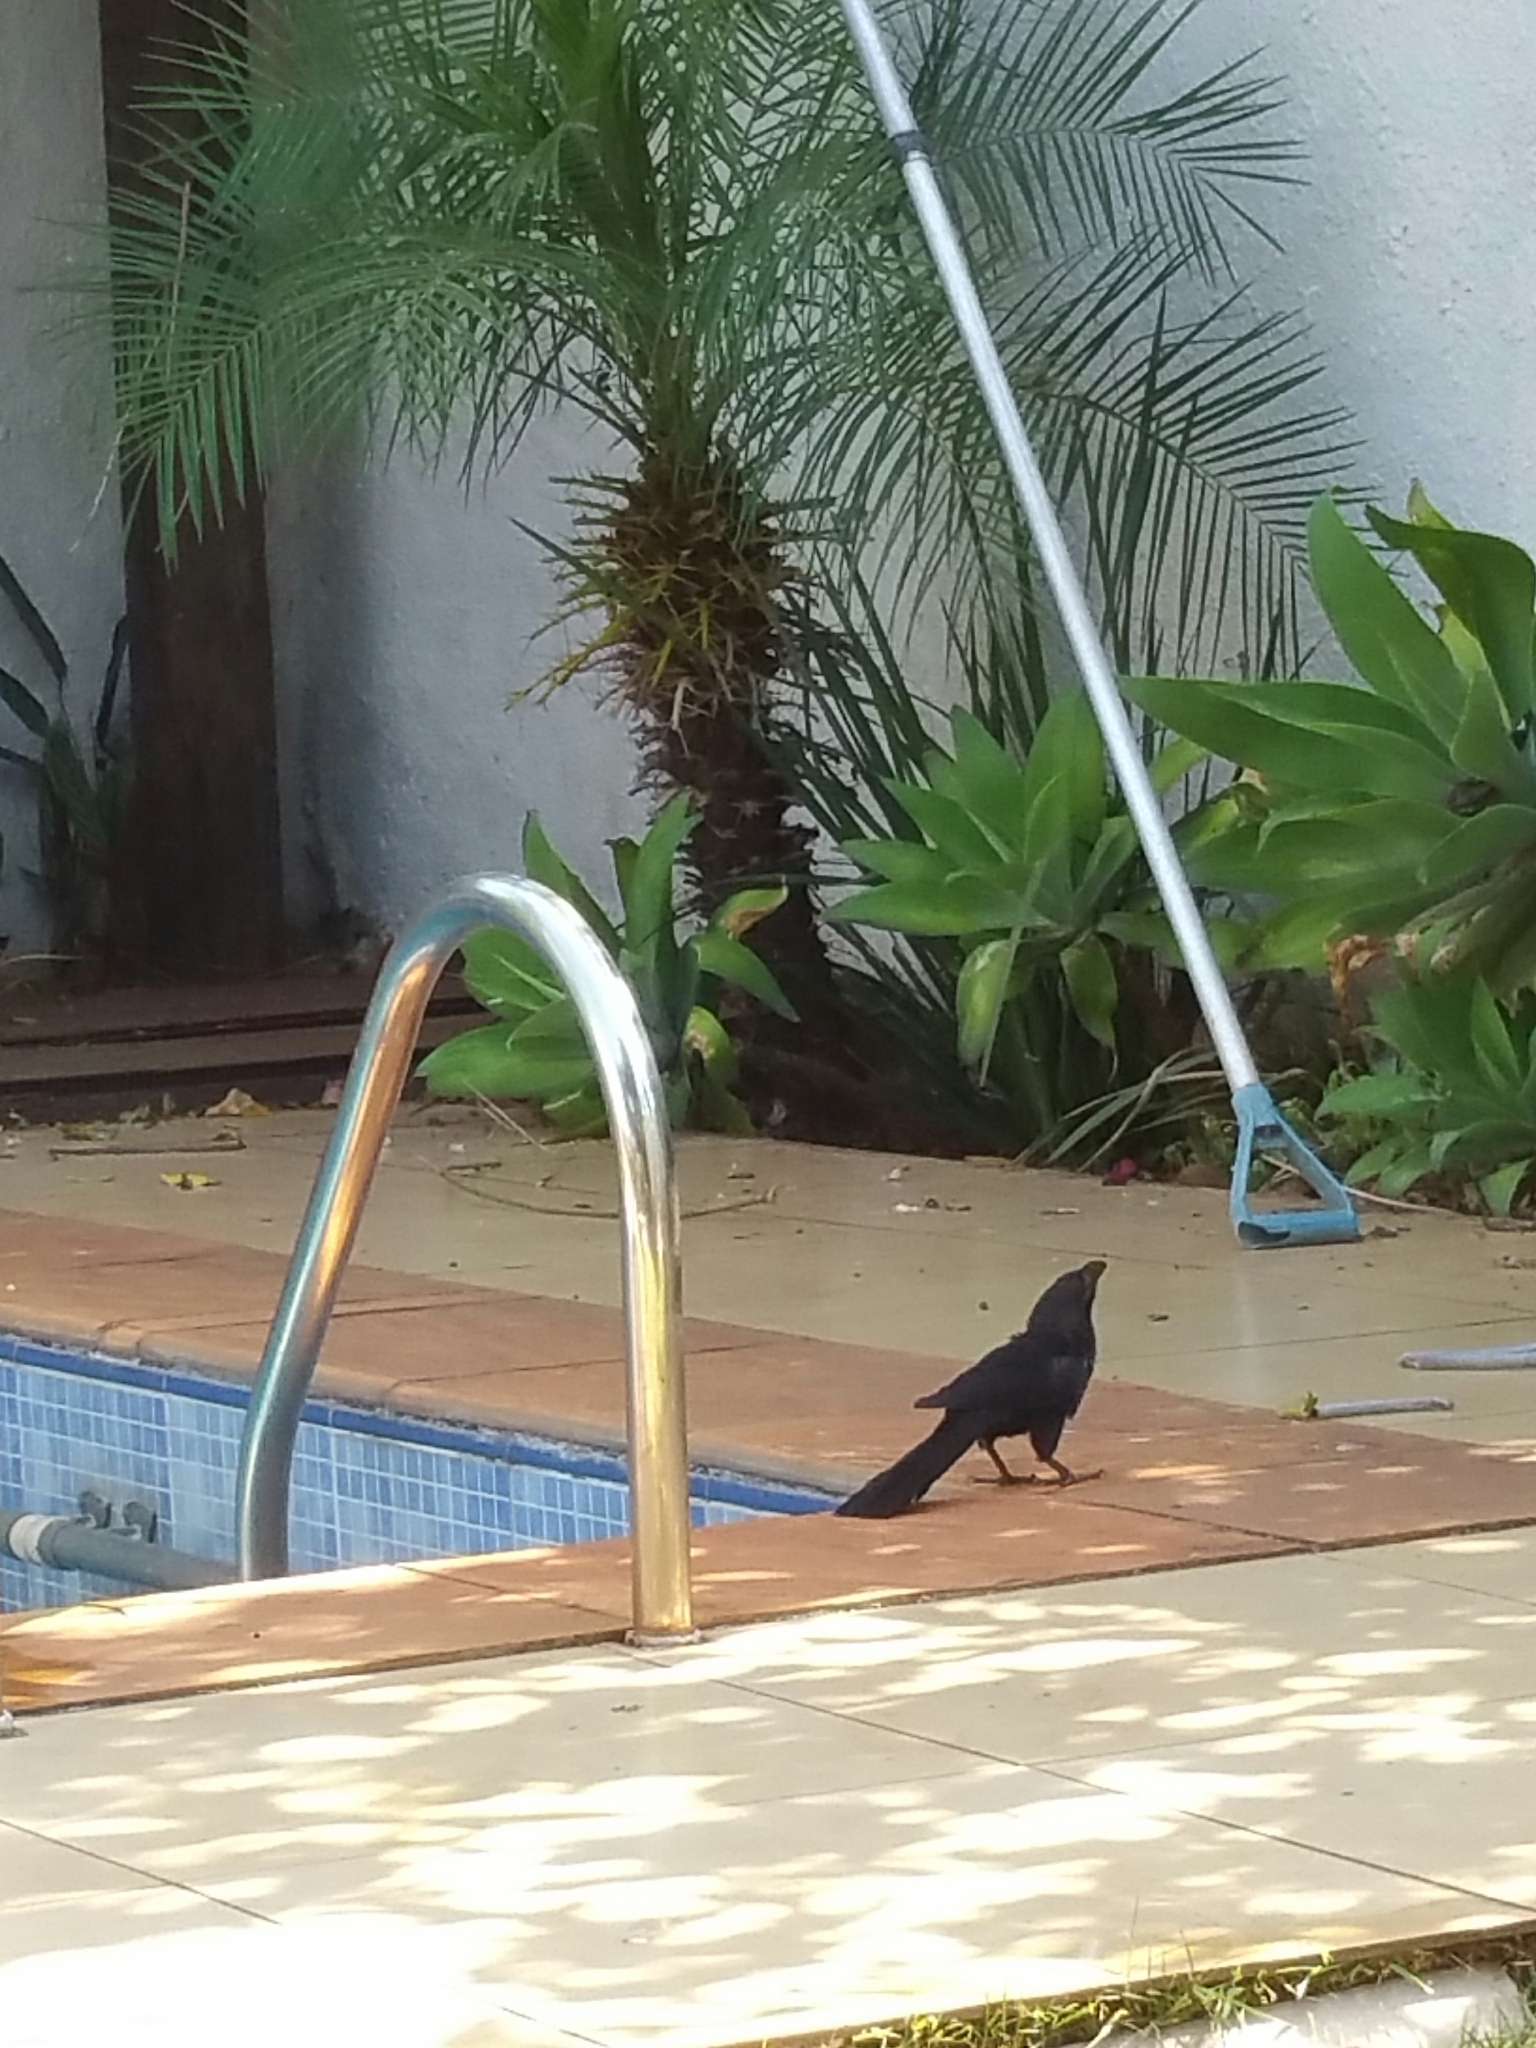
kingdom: Animalia
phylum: Chordata
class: Aves
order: Cuculiformes
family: Cuculidae
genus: Crotophaga
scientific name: Crotophaga ani
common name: Smooth-billed ani
